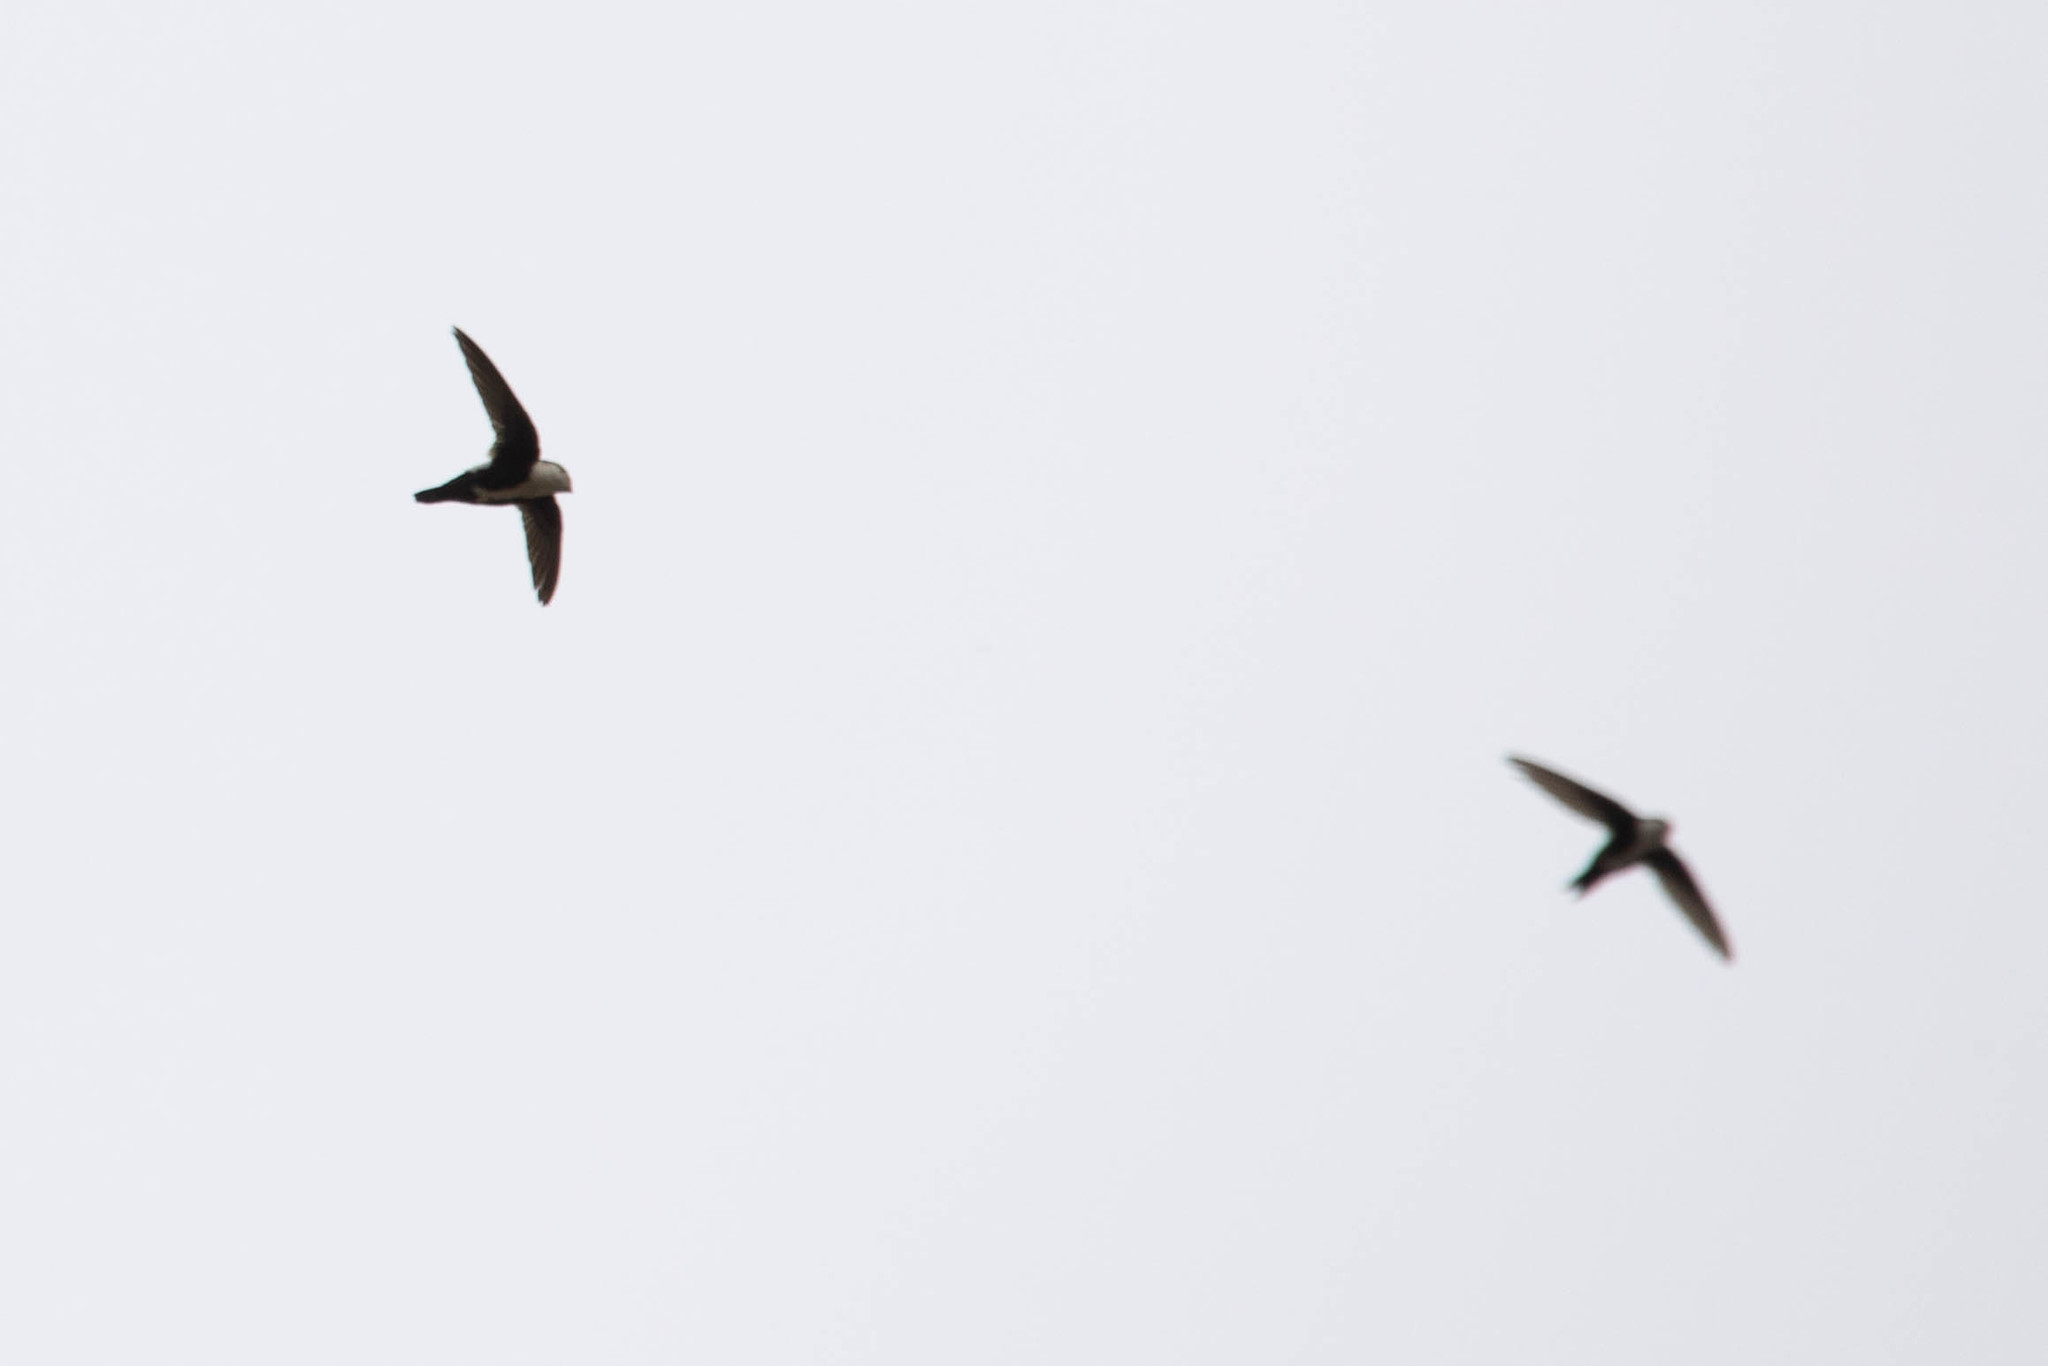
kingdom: Animalia
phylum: Chordata
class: Aves
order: Apodiformes
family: Apodidae
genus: Aeronautes
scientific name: Aeronautes saxatalis
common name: White-throated swift
